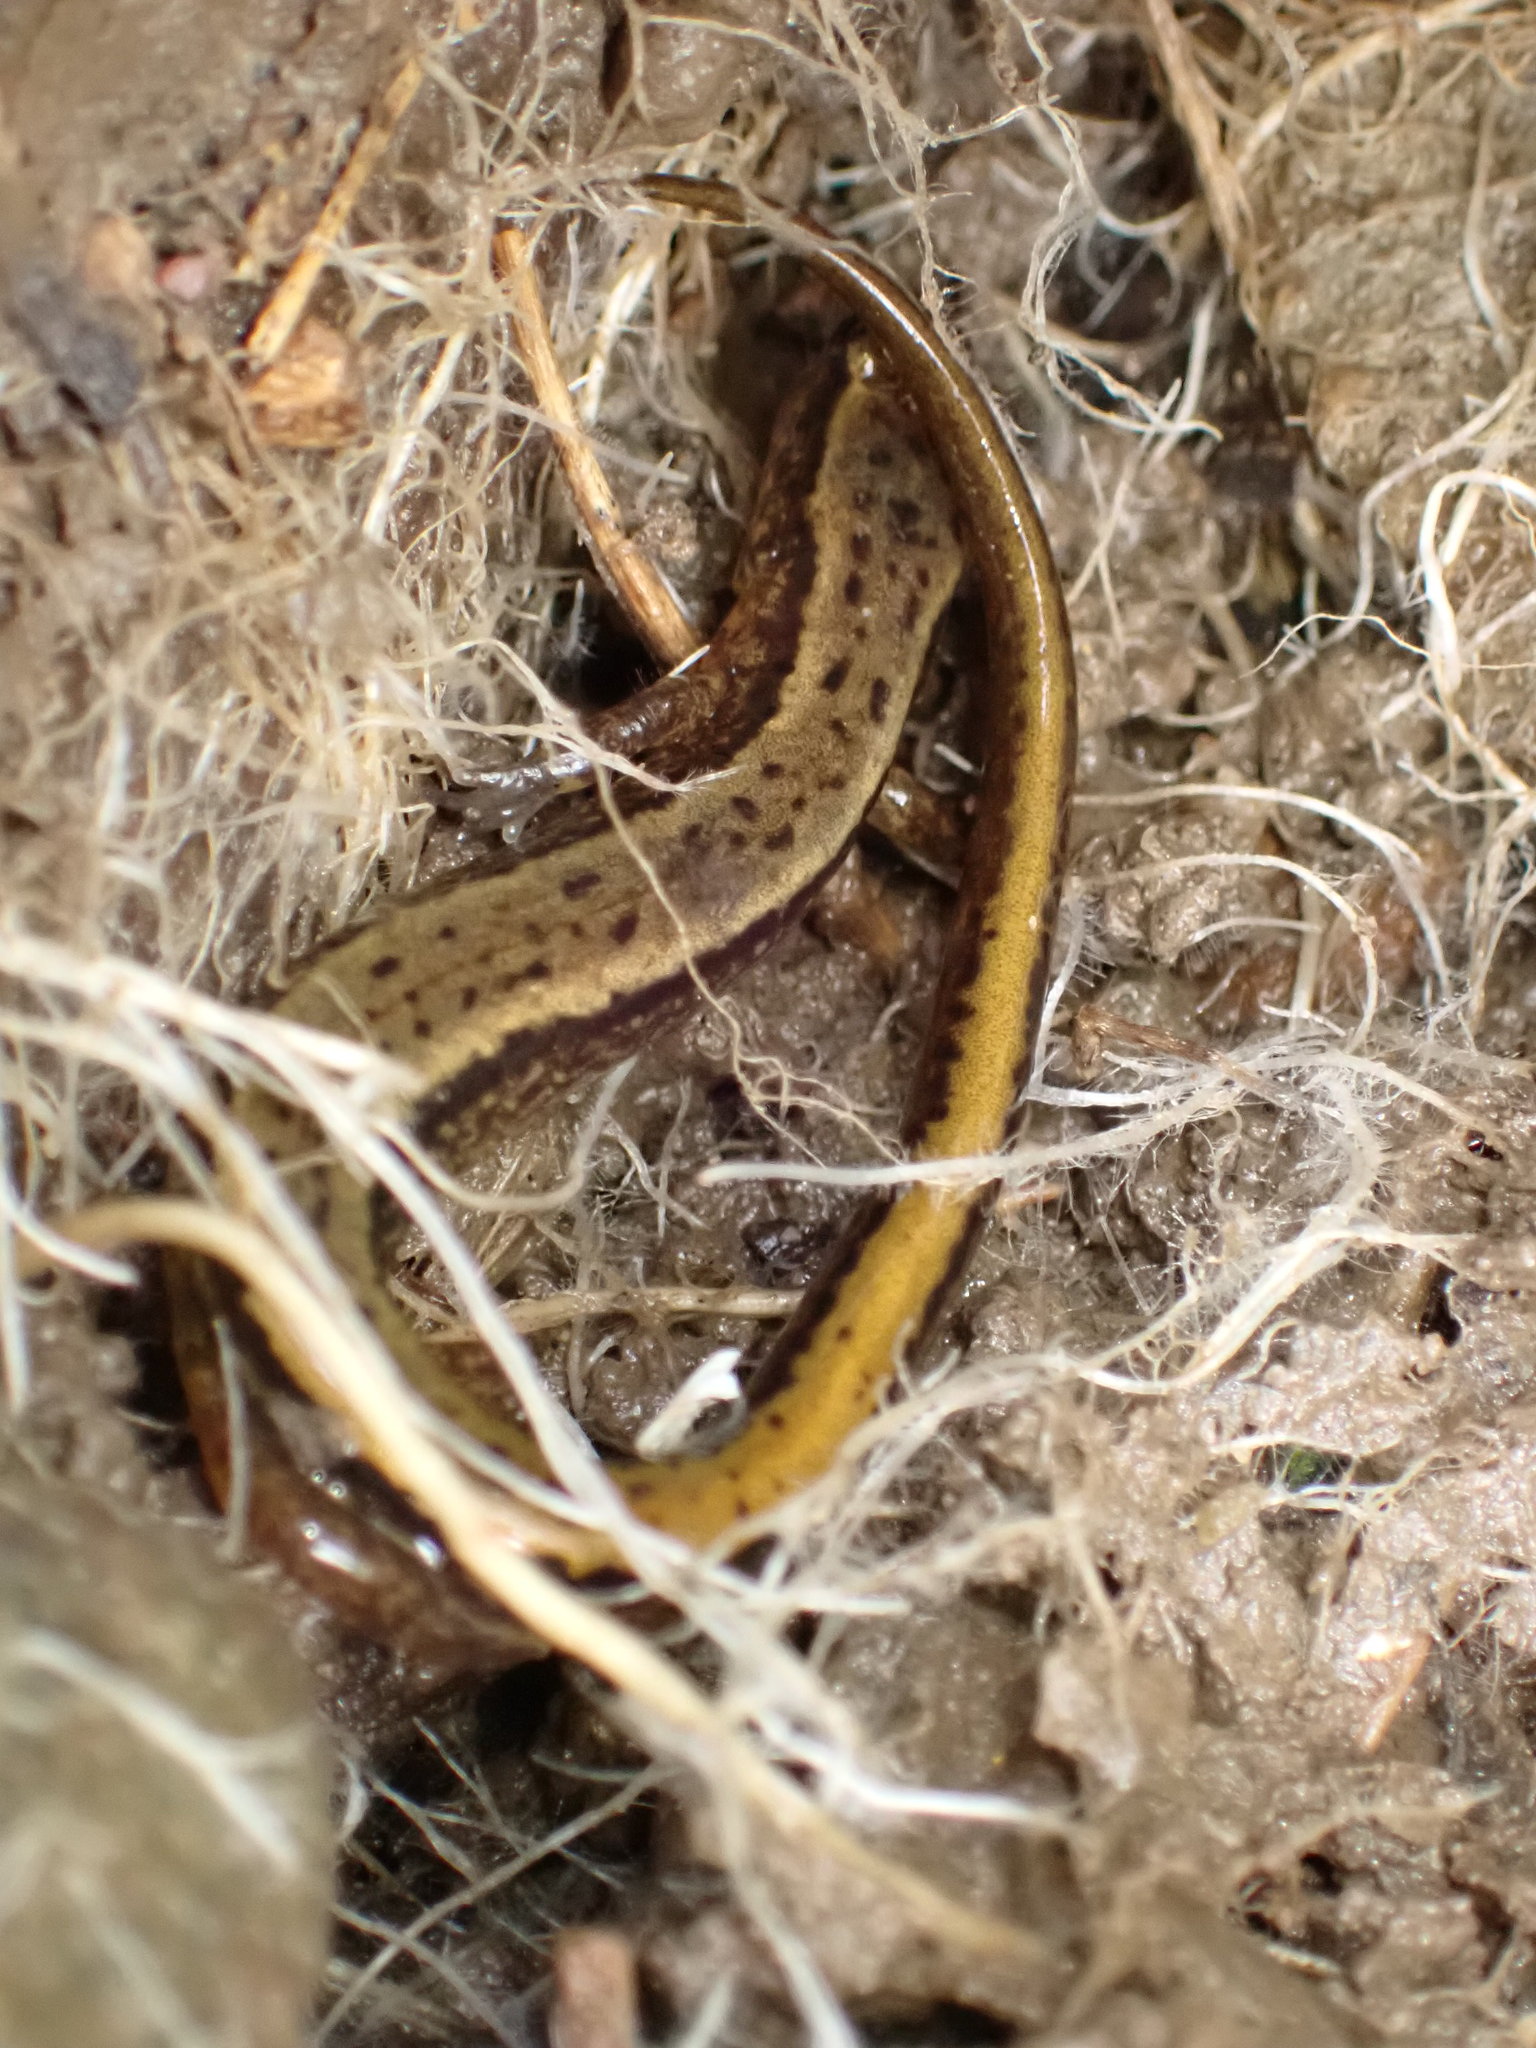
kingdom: Animalia
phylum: Chordata
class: Amphibia
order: Caudata
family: Plethodontidae
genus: Eurycea
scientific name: Eurycea bislineata
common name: Northern two-lined salamander
